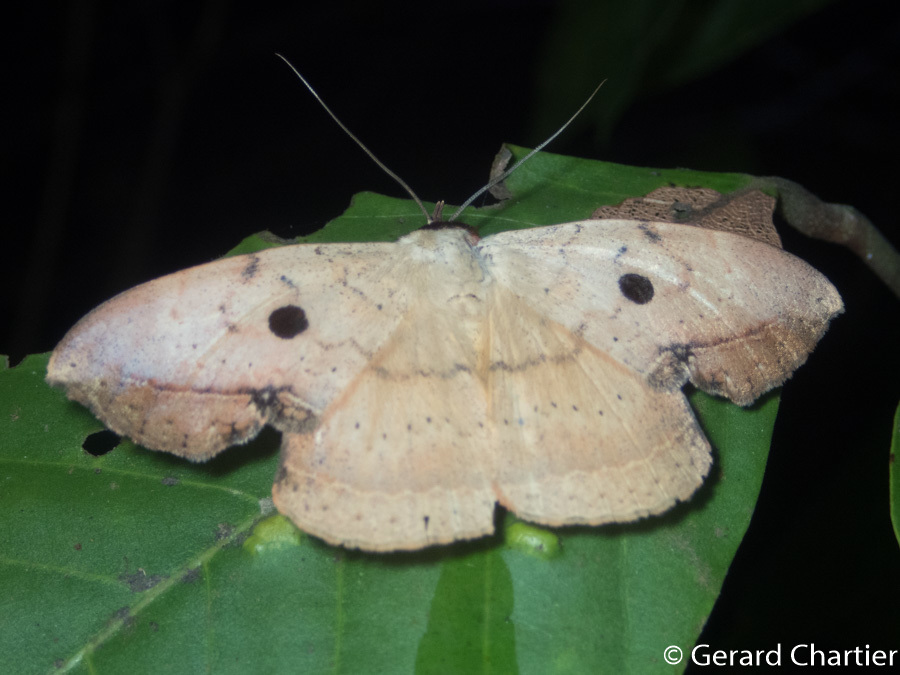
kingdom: Animalia
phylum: Arthropoda
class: Insecta
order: Lepidoptera
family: Erebidae
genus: Hypopyra
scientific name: Hypopyra contractipennis
